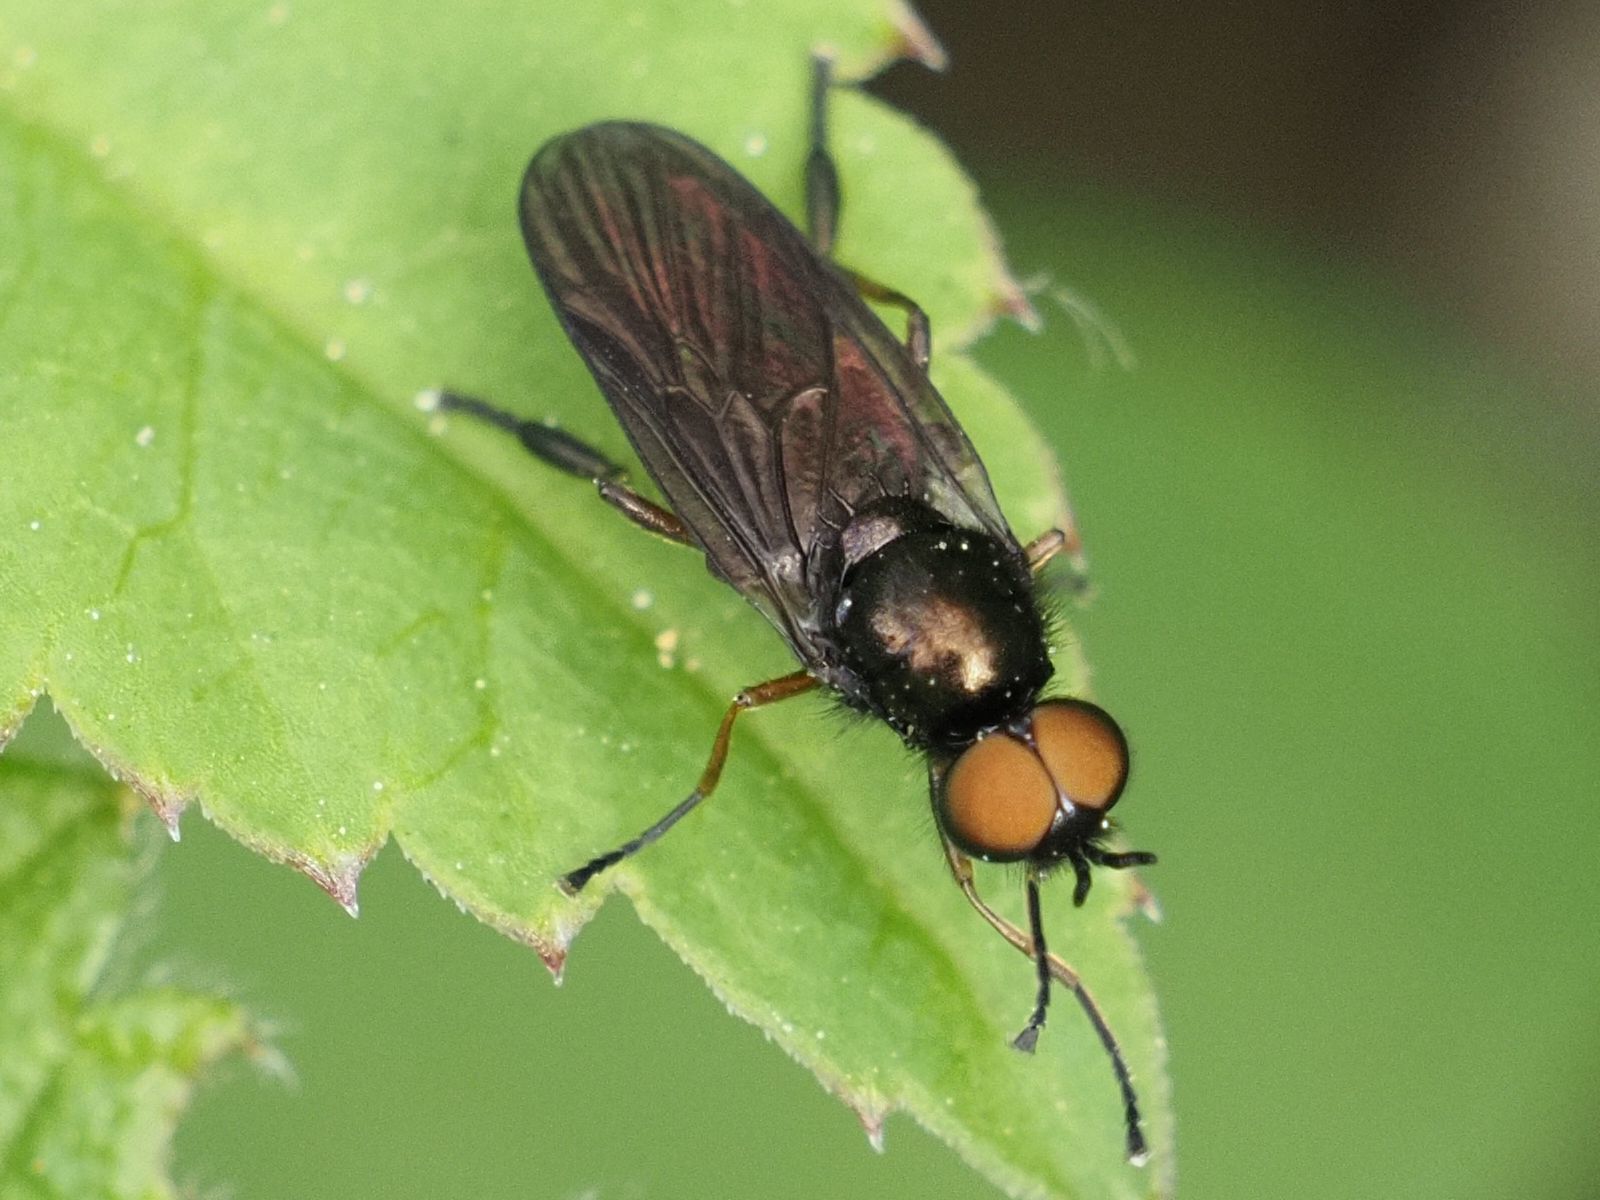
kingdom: Animalia
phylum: Arthropoda
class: Insecta
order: Diptera
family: Stratiomyidae
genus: Beris
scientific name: Beris chalybata
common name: Murky-legged black legionnaire
